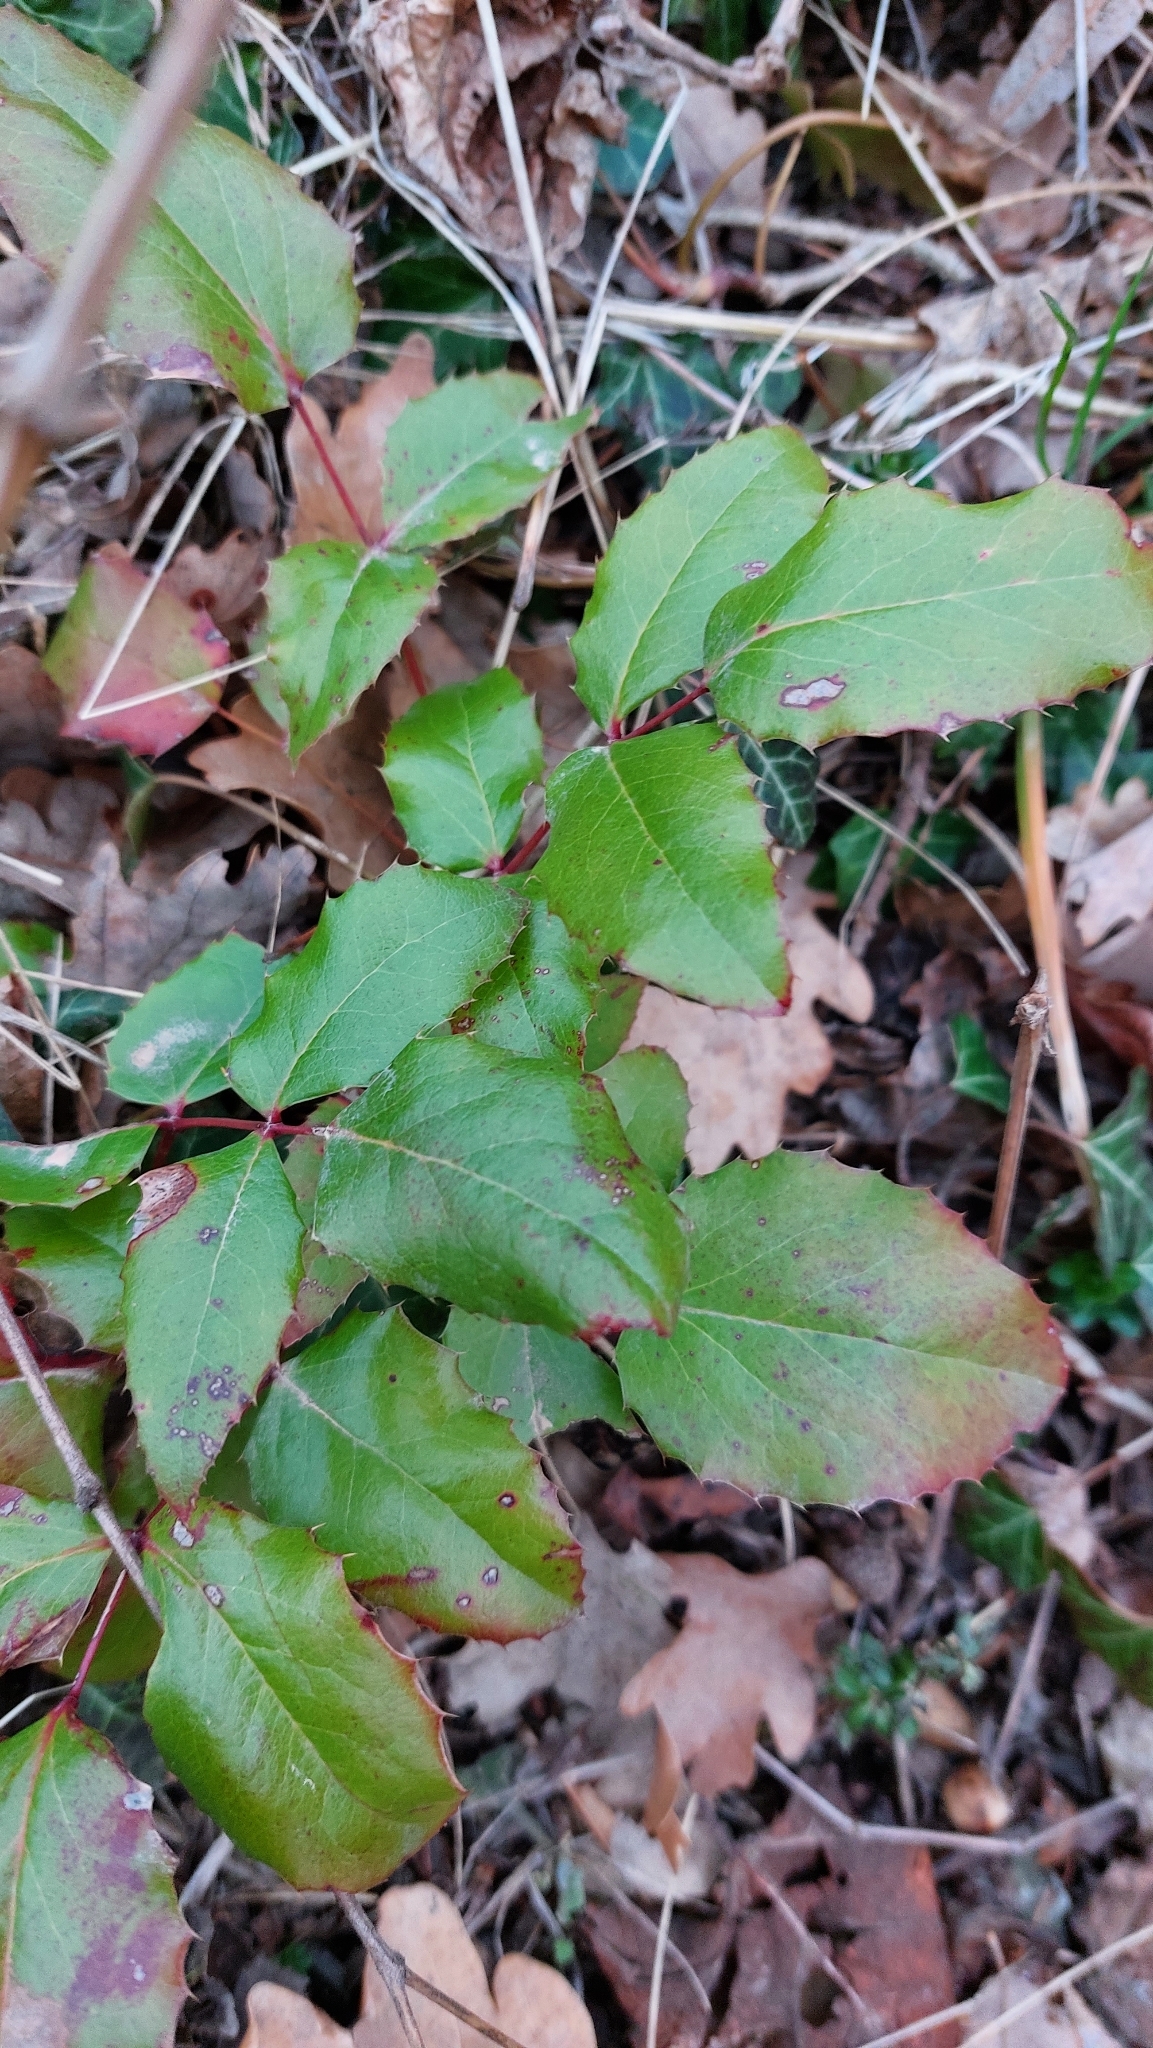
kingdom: Plantae
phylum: Tracheophyta
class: Magnoliopsida
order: Ranunculales
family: Berberidaceae
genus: Mahonia
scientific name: Mahonia aquifolium
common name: Oregon-grape
